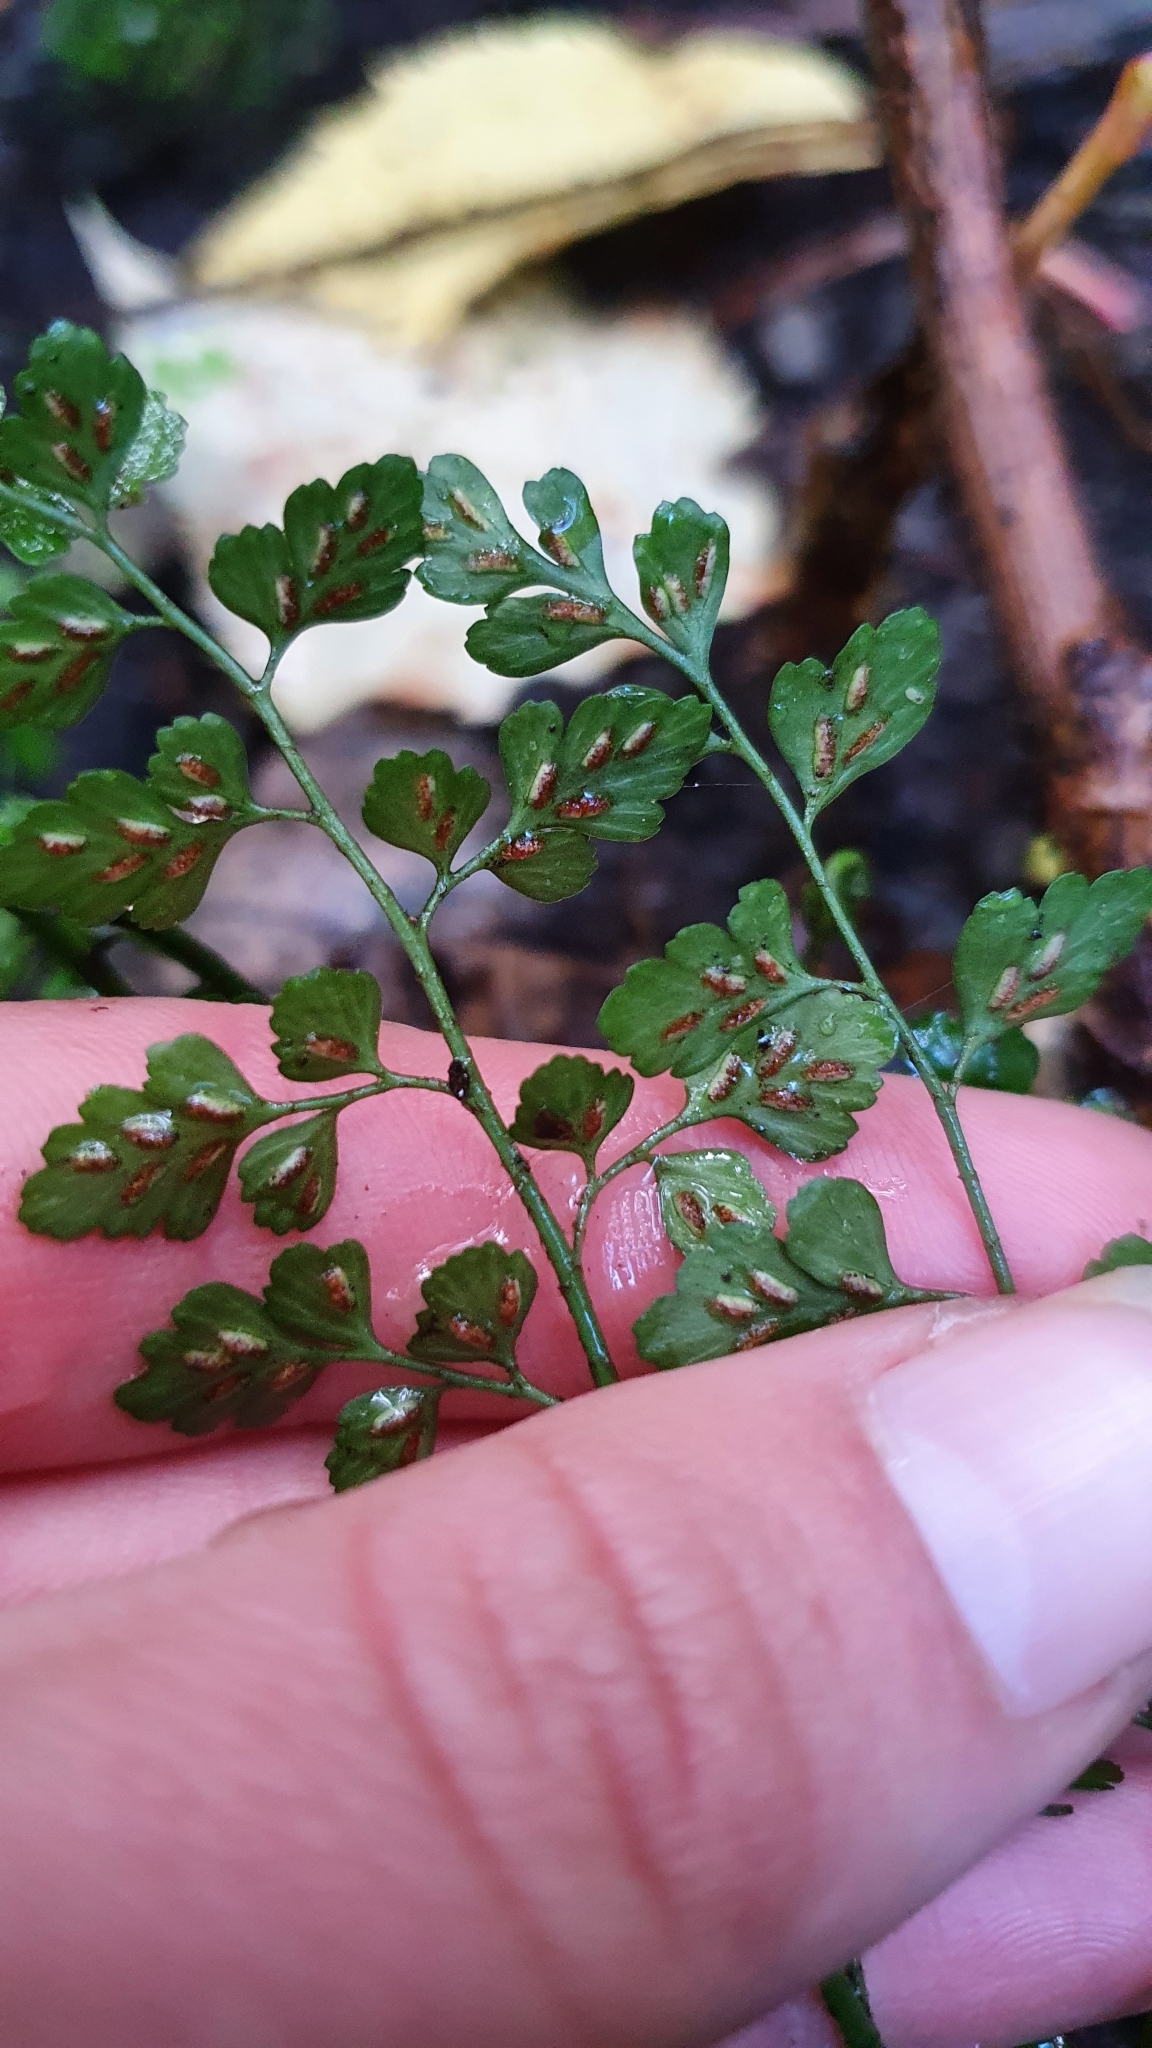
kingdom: Plantae
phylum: Tracheophyta
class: Polypodiopsida
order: Polypodiales
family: Aspleniaceae
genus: Asplenium
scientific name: Asplenium hookerianum
